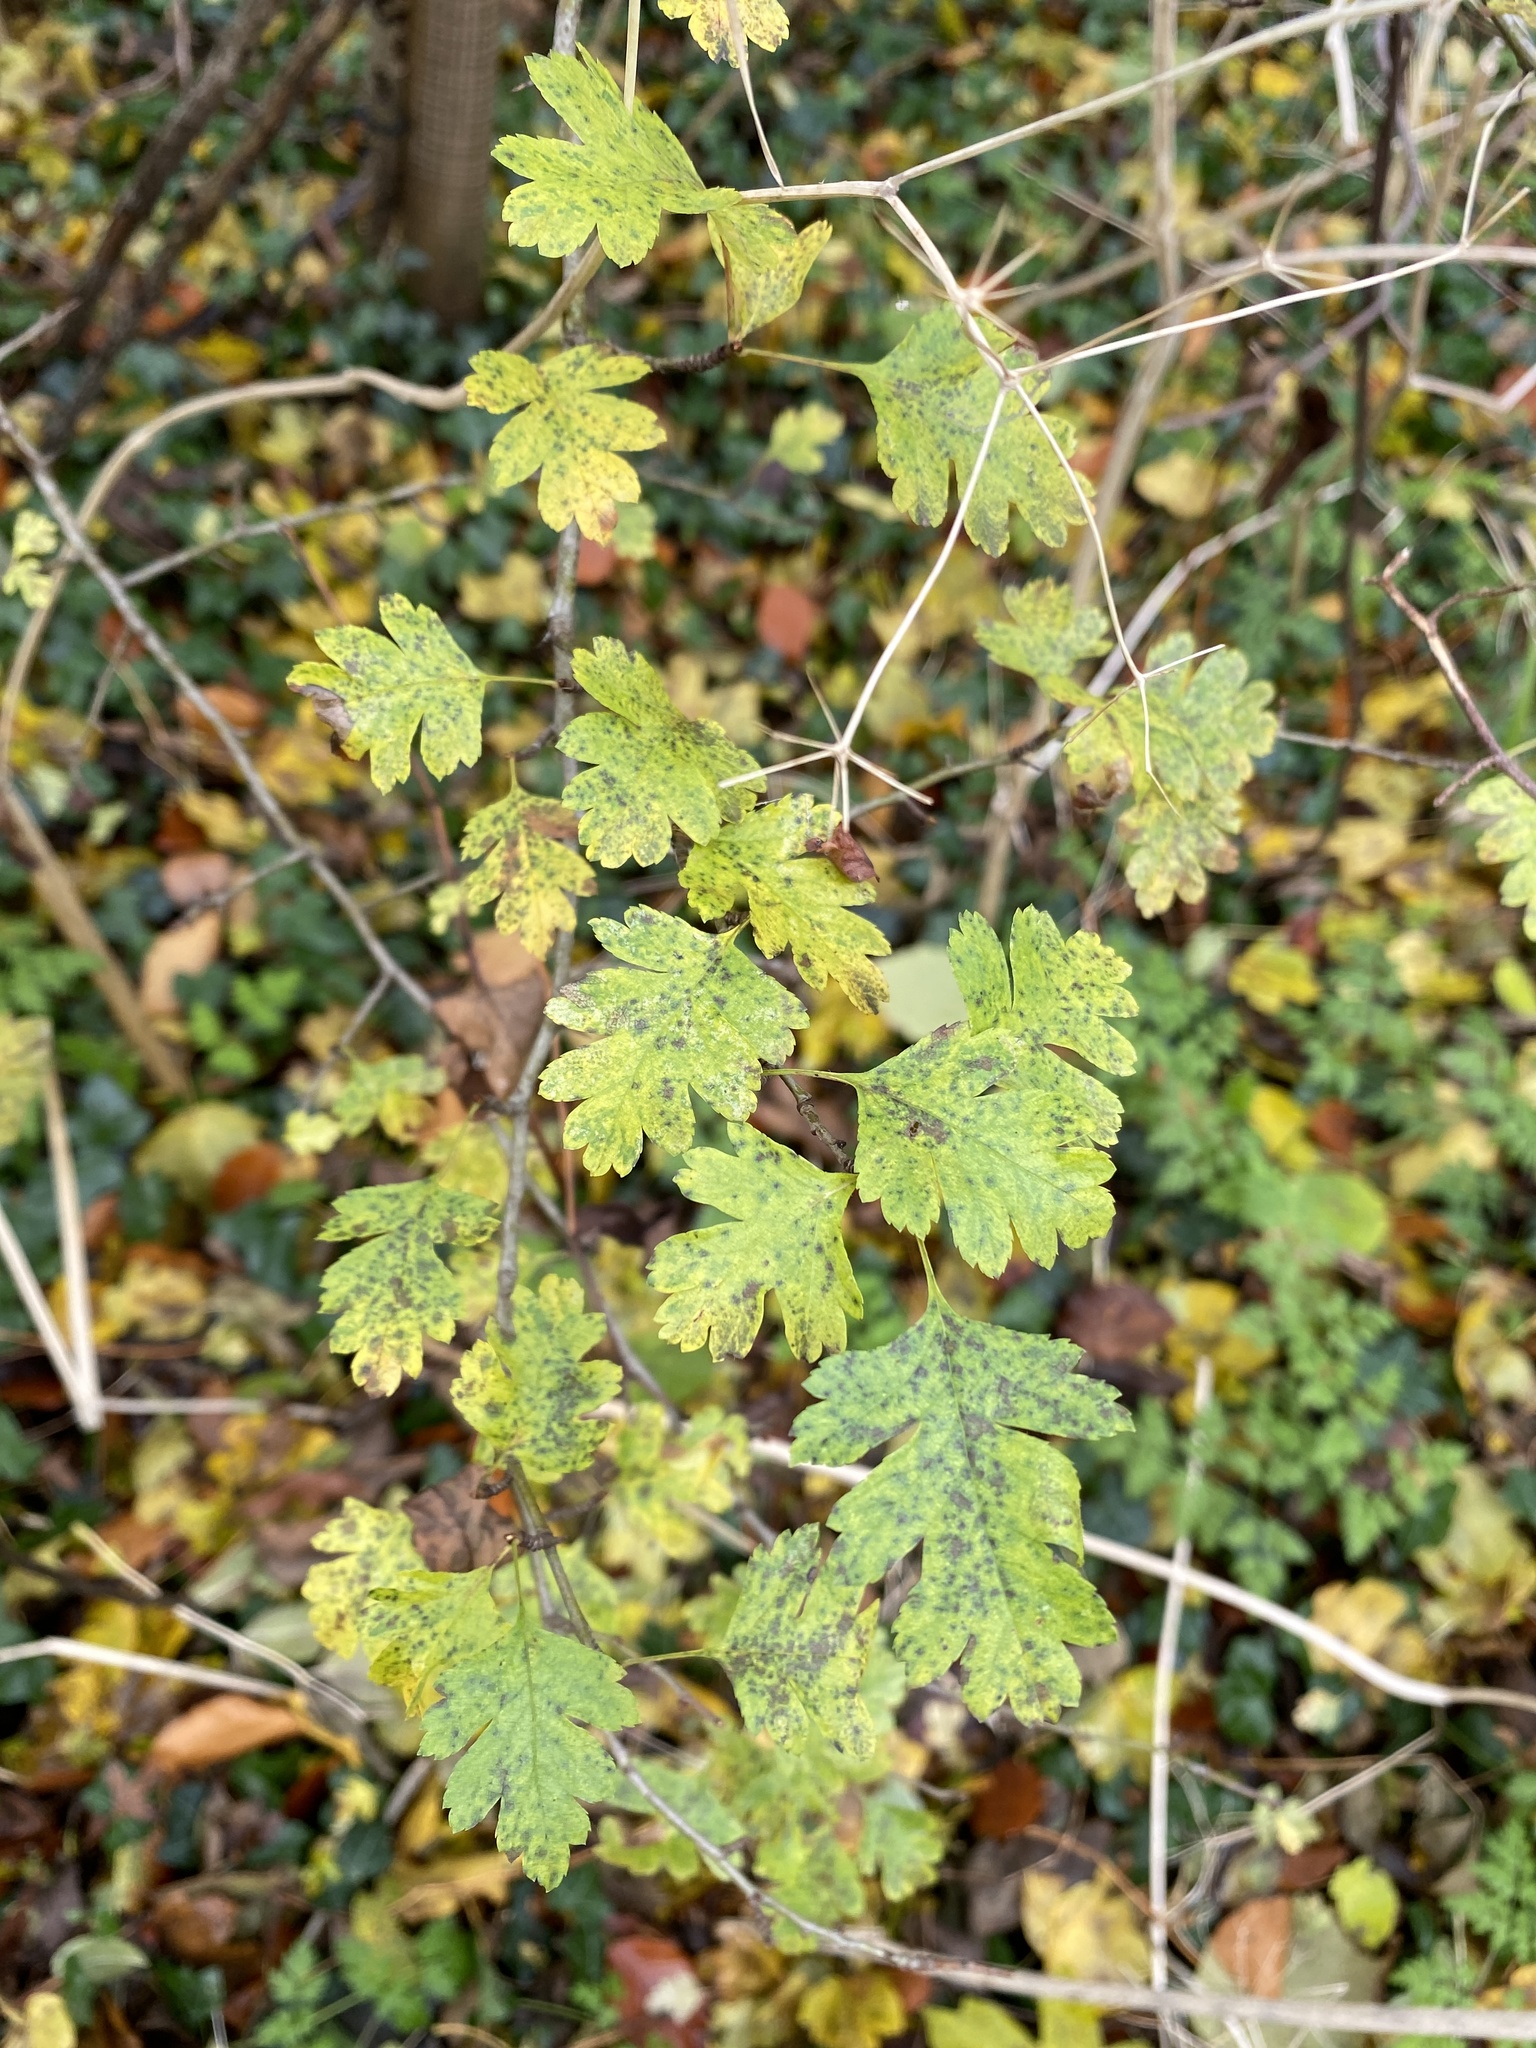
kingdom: Plantae
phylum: Tracheophyta
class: Magnoliopsida
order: Rosales
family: Rosaceae
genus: Crataegus
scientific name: Crataegus monogyna
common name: Hawthorn
